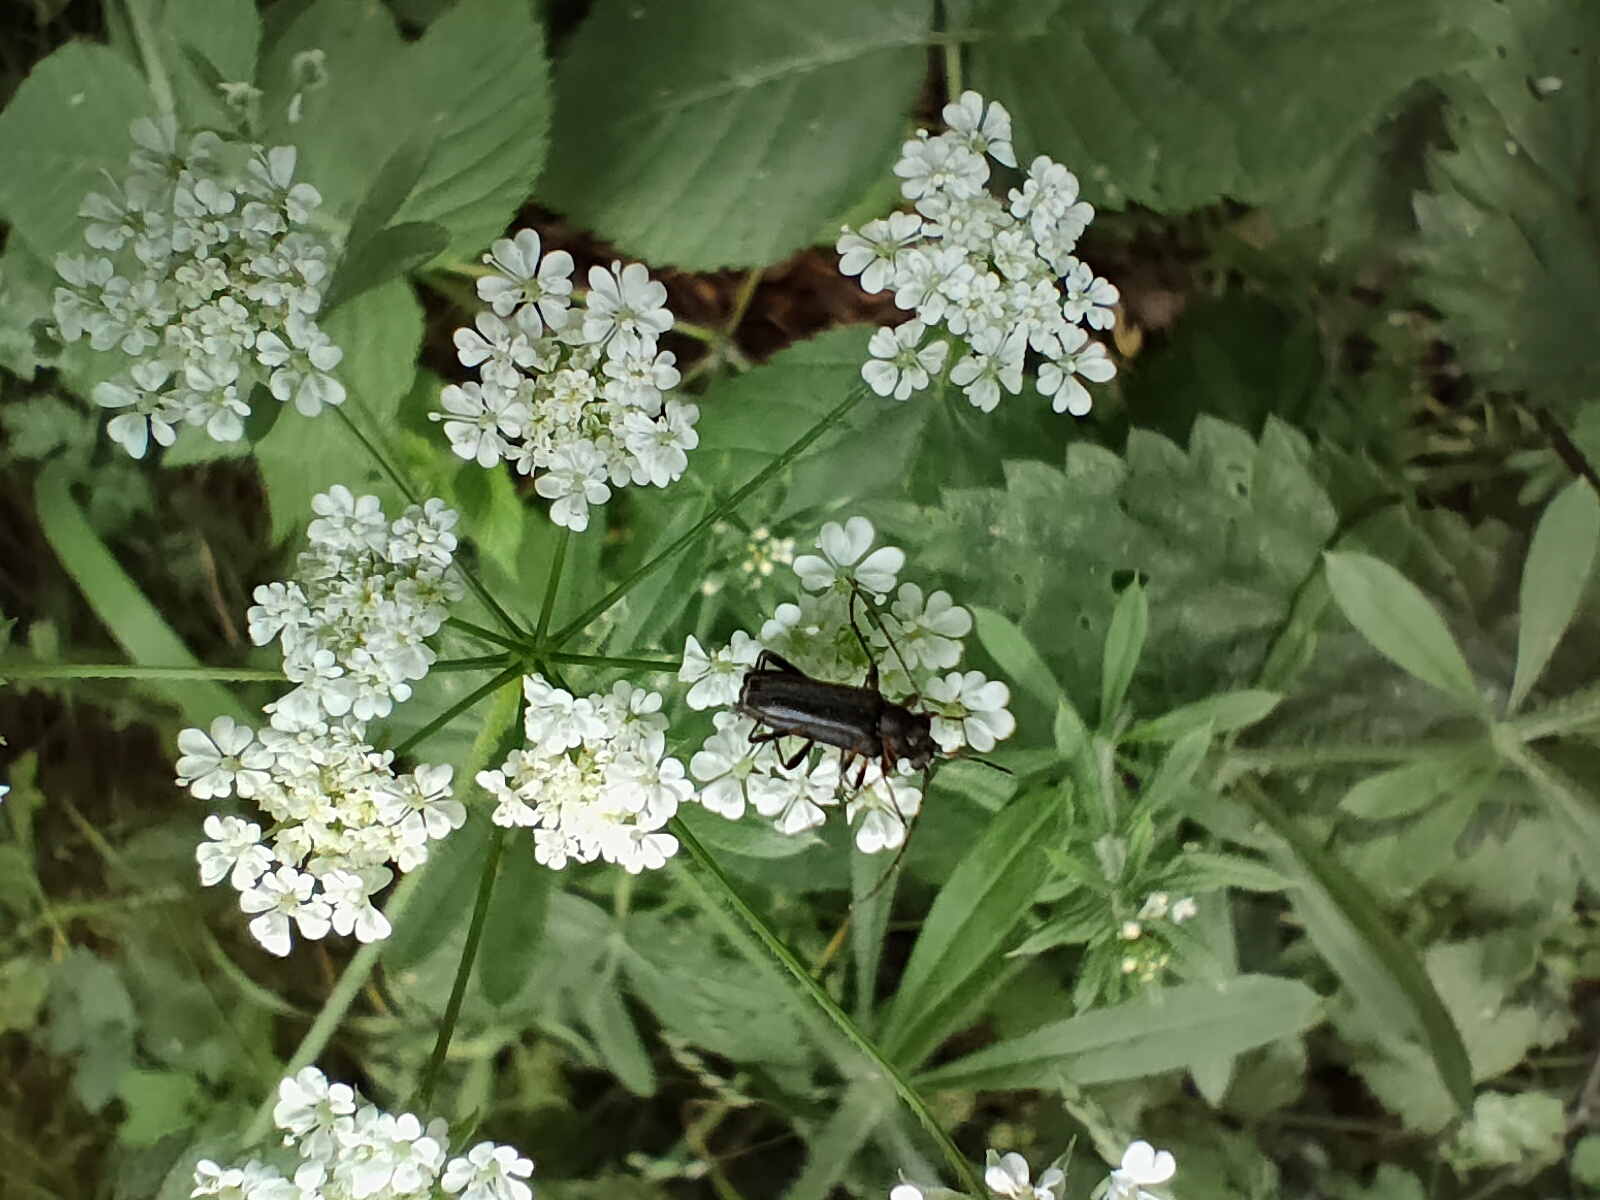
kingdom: Animalia
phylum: Arthropoda
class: Insecta
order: Coleoptera
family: Cerambycidae
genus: Grammoptera
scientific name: Grammoptera ruficornis
